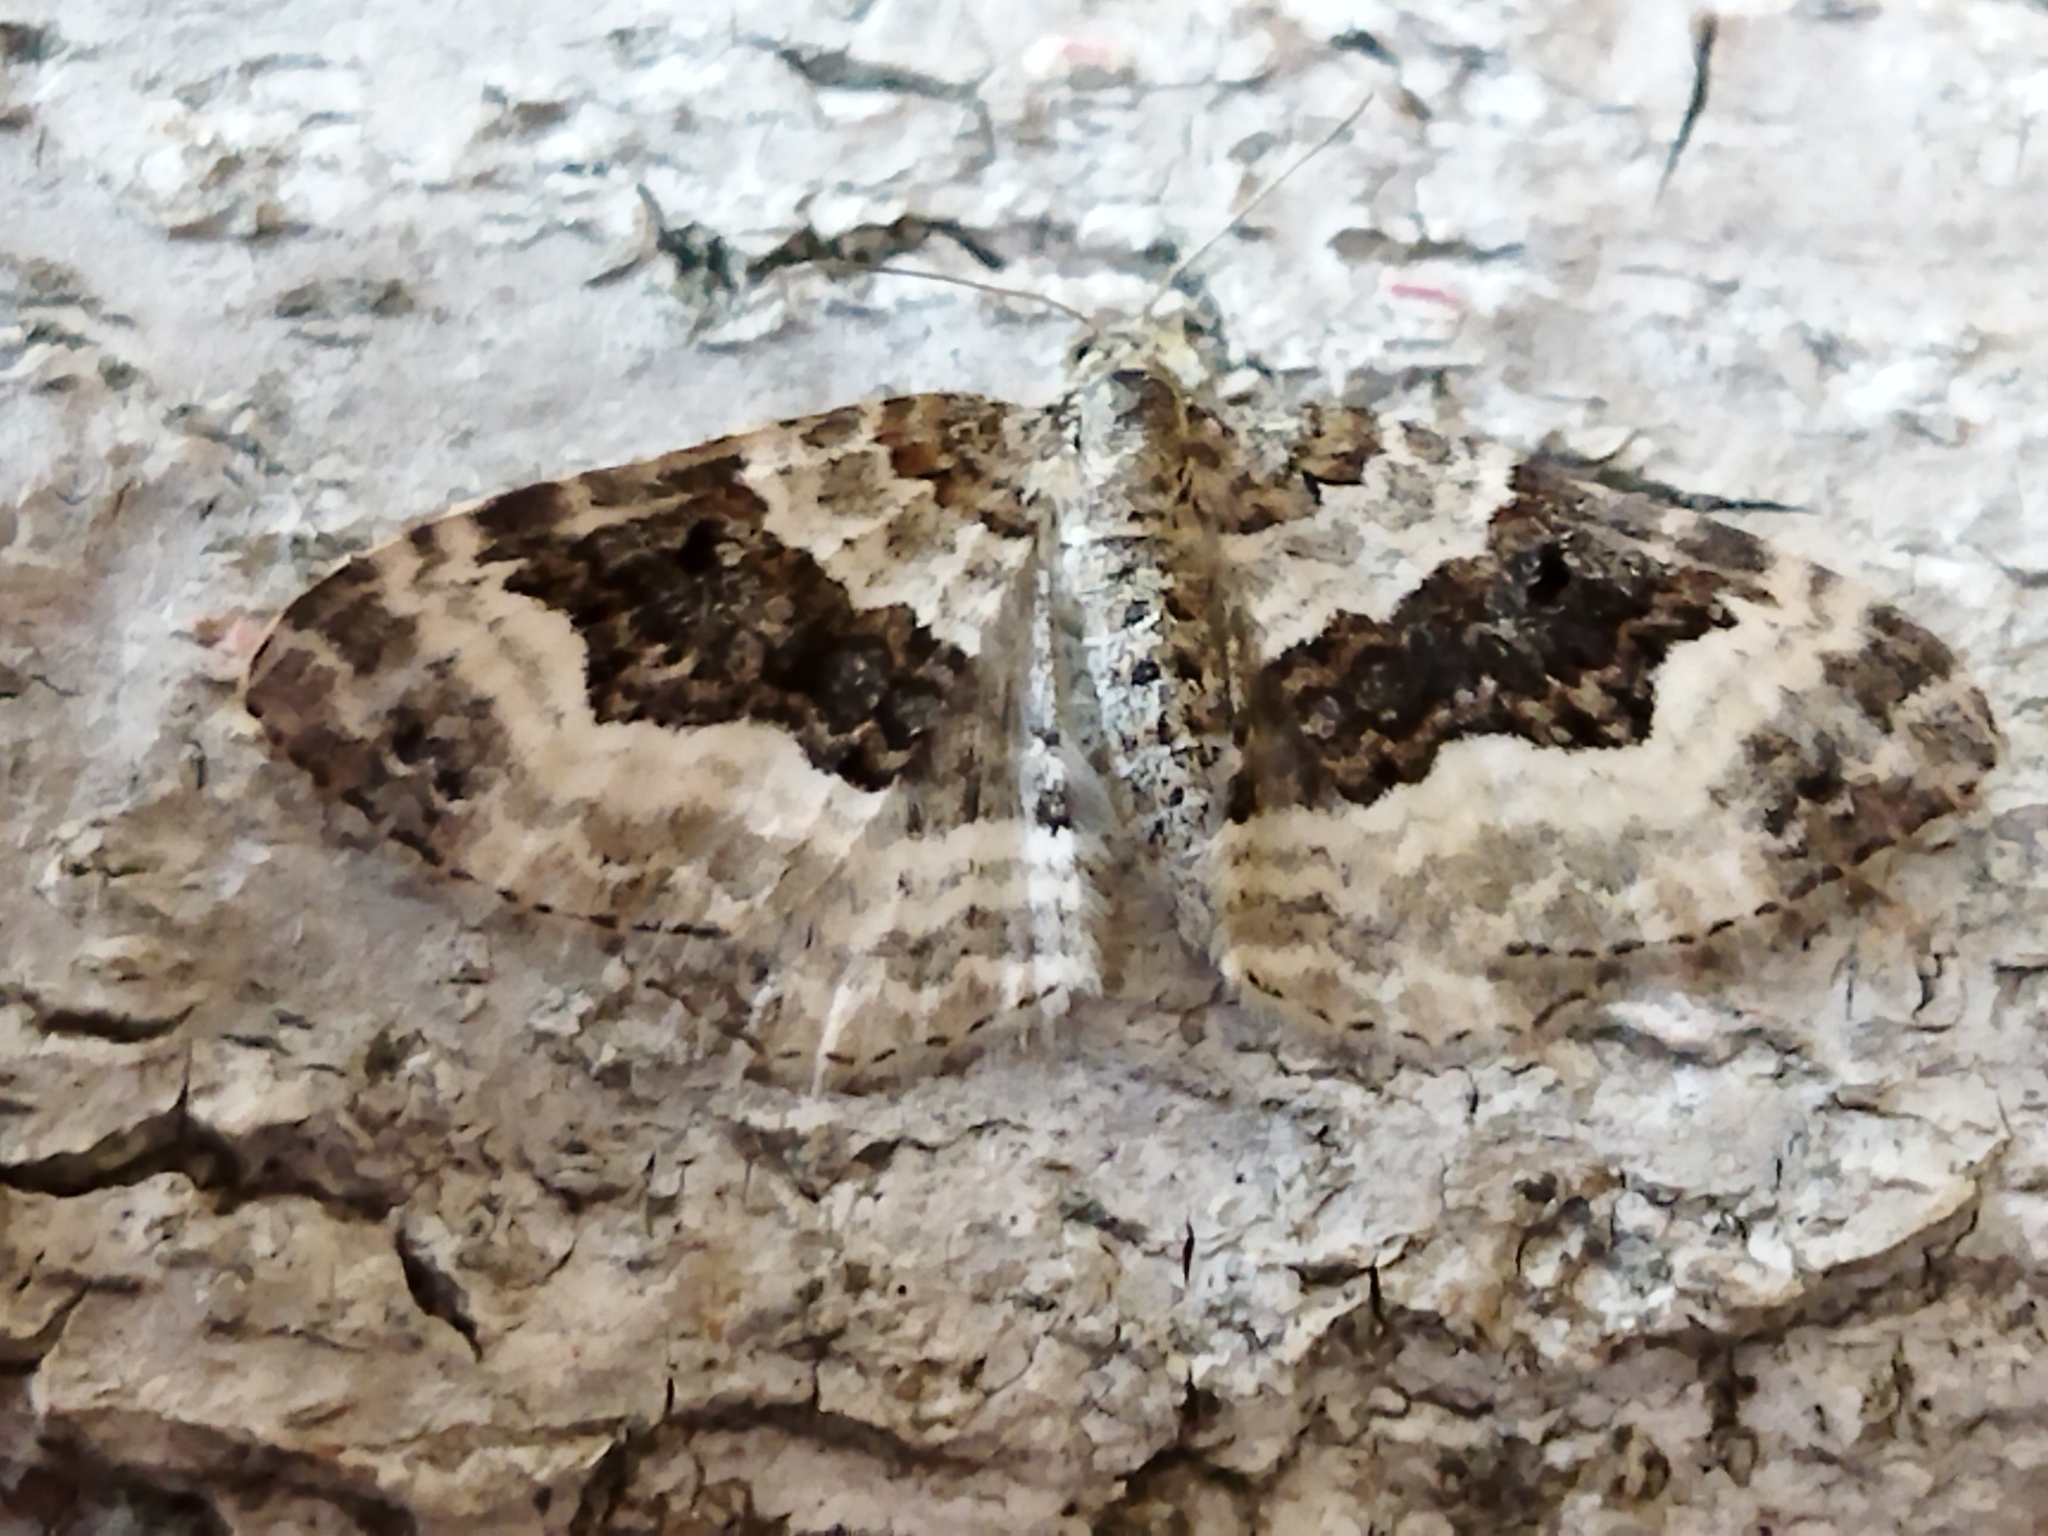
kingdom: Animalia
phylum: Arthropoda
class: Insecta
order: Lepidoptera
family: Geometridae
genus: Epirrhoe
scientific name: Epirrhoe alternata
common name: Common carpet
